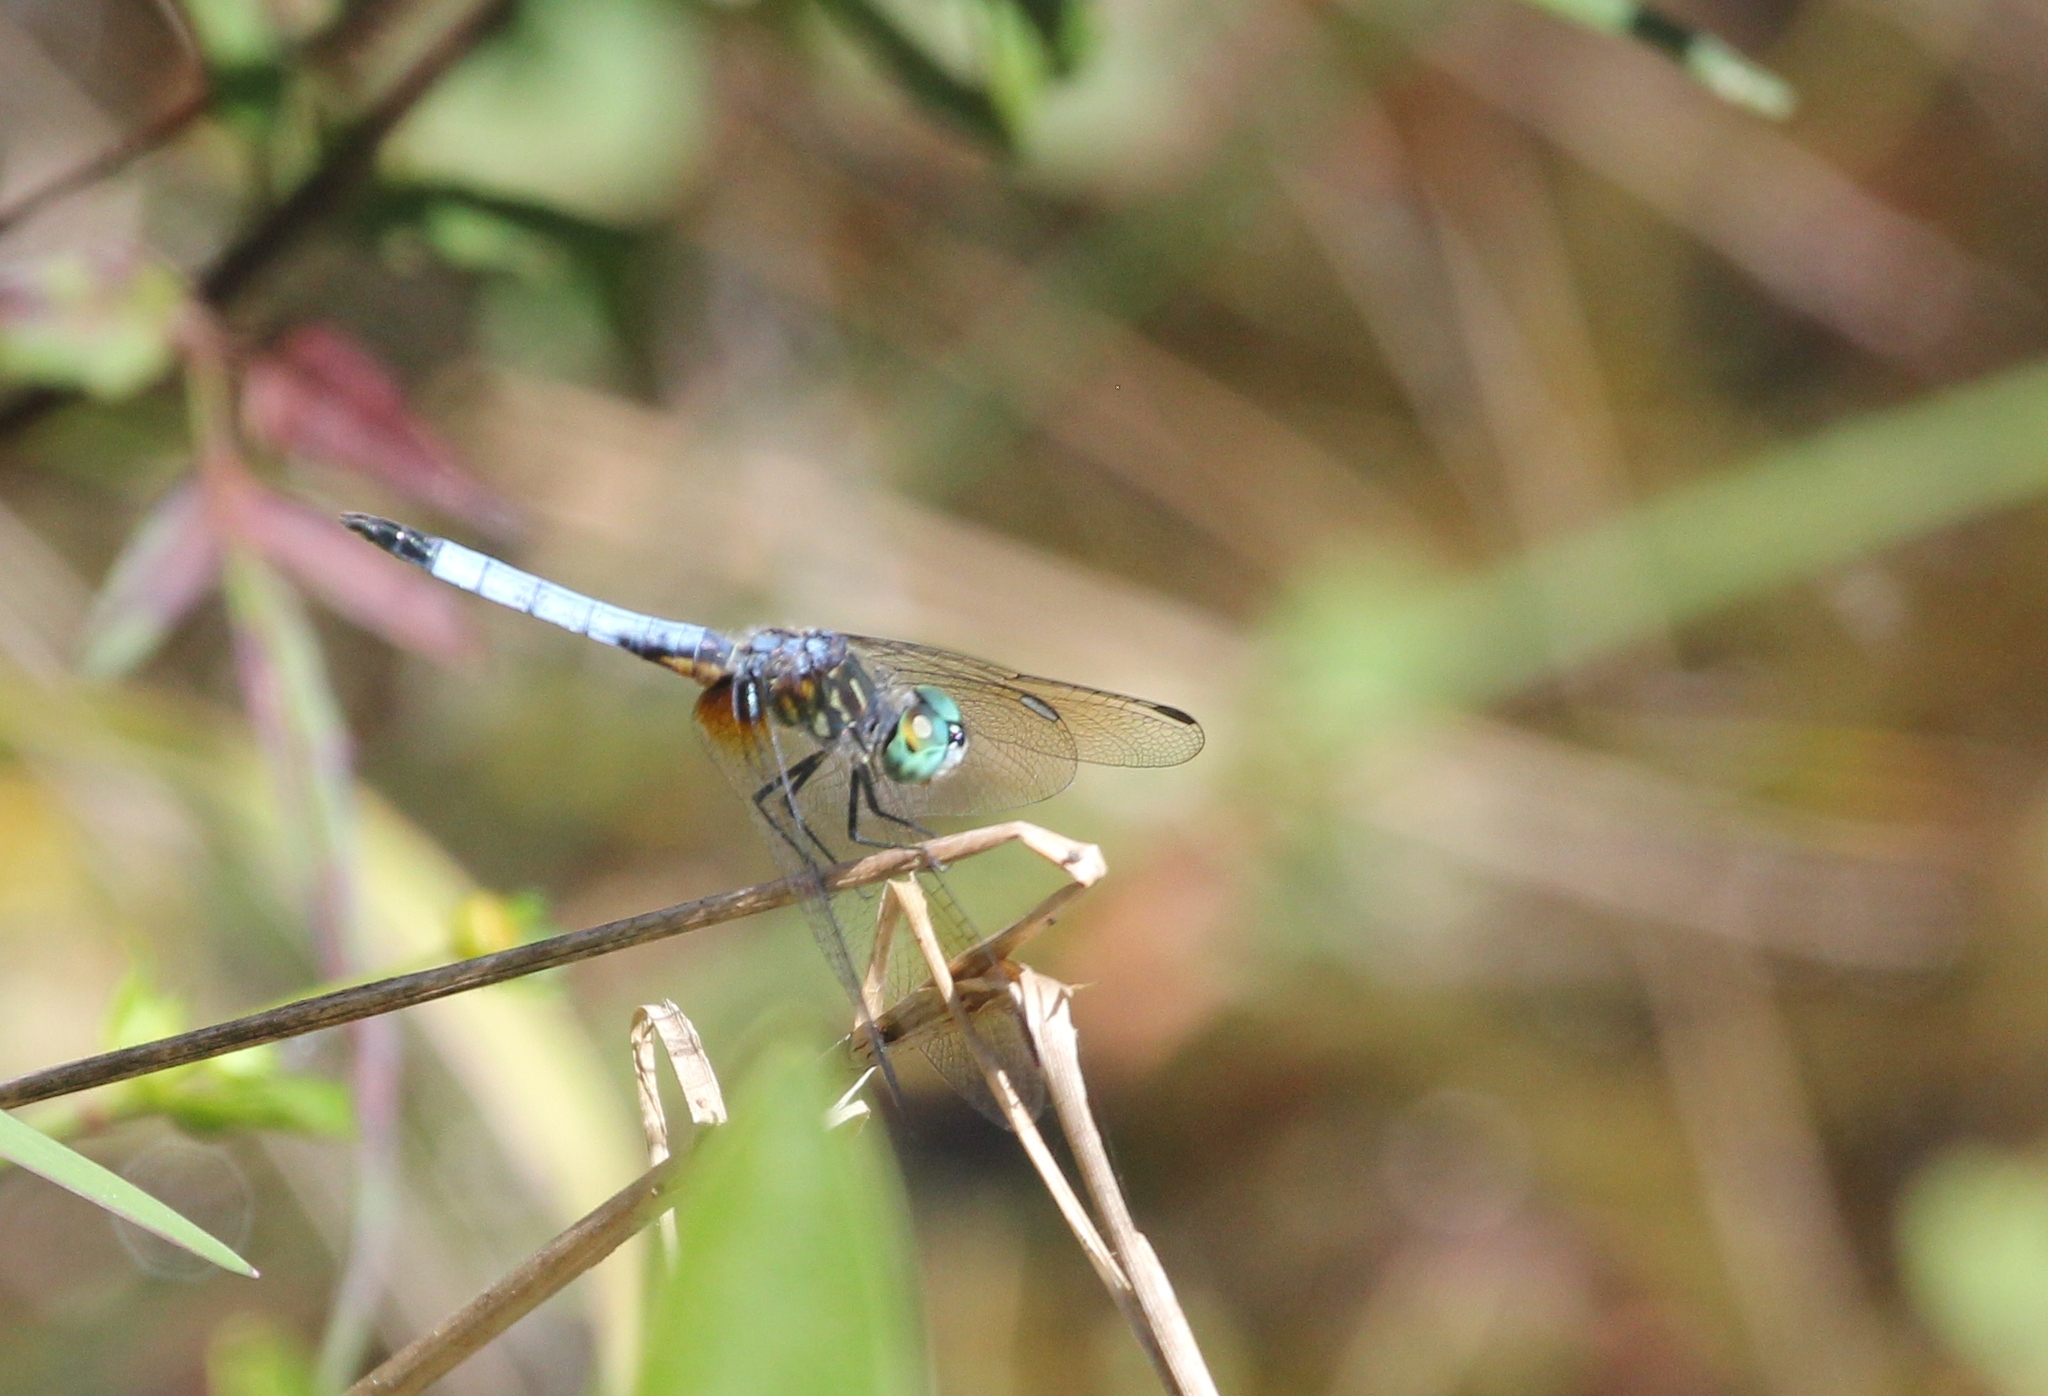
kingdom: Animalia
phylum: Arthropoda
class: Insecta
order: Odonata
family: Libellulidae
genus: Pachydiplax
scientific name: Pachydiplax longipennis
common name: Blue dasher
